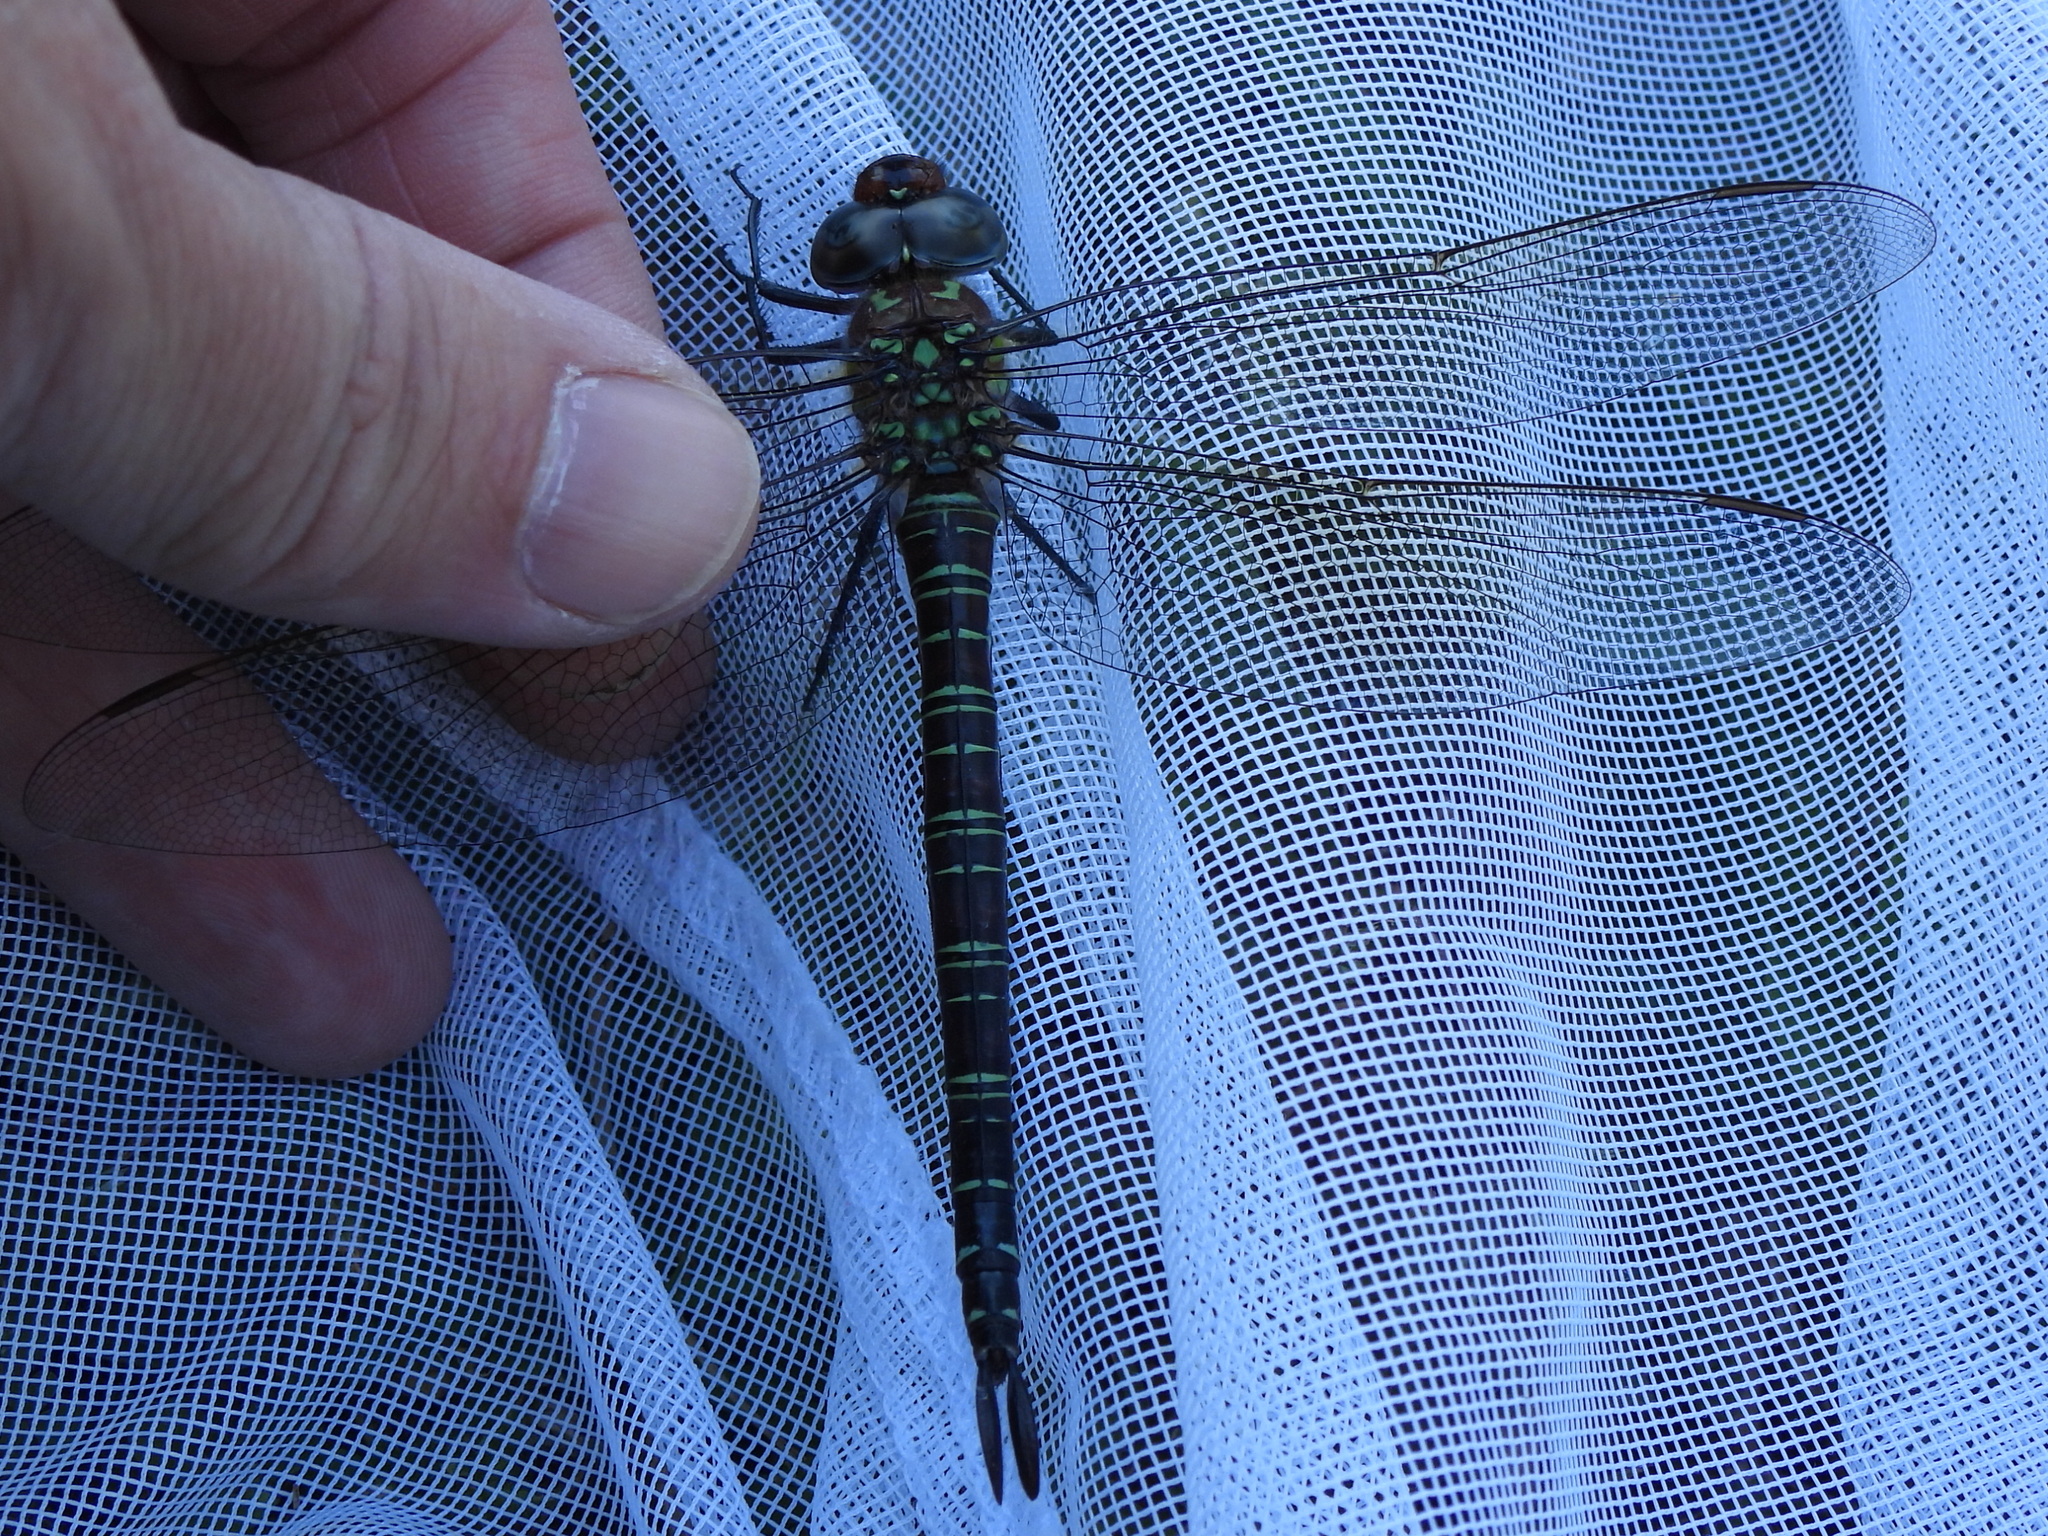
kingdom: Animalia
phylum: Arthropoda
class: Insecta
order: Odonata
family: Aeshnidae
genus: Epiaeschna
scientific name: Epiaeschna heros
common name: Swamp darner
